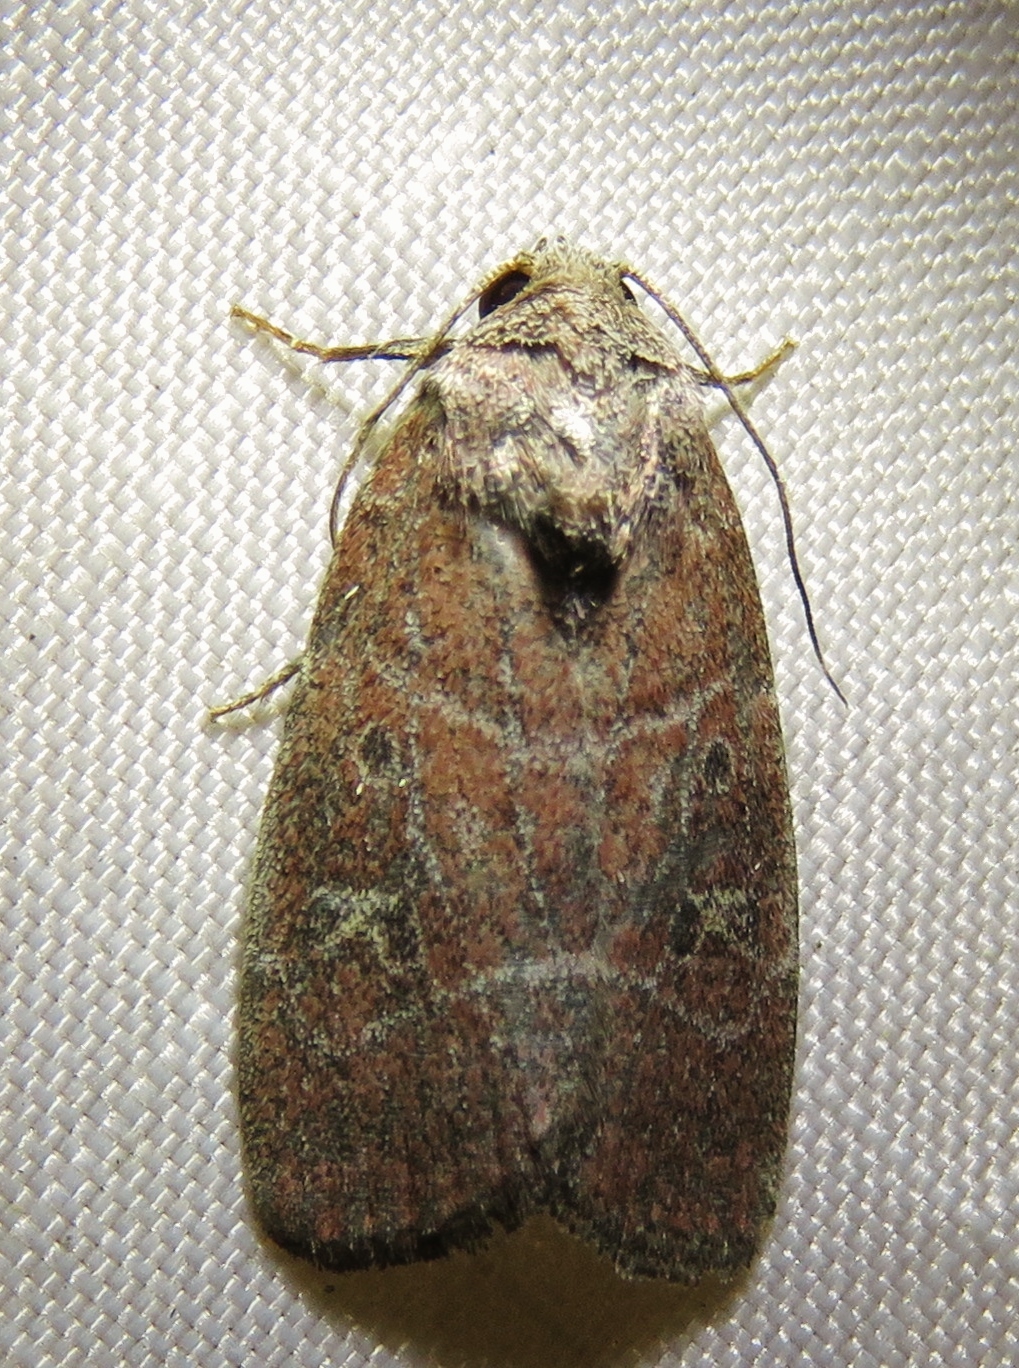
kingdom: Animalia
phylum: Arthropoda
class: Insecta
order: Lepidoptera
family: Noctuidae
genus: Elaphria
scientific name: Elaphria grata
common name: Grateful midget moth
